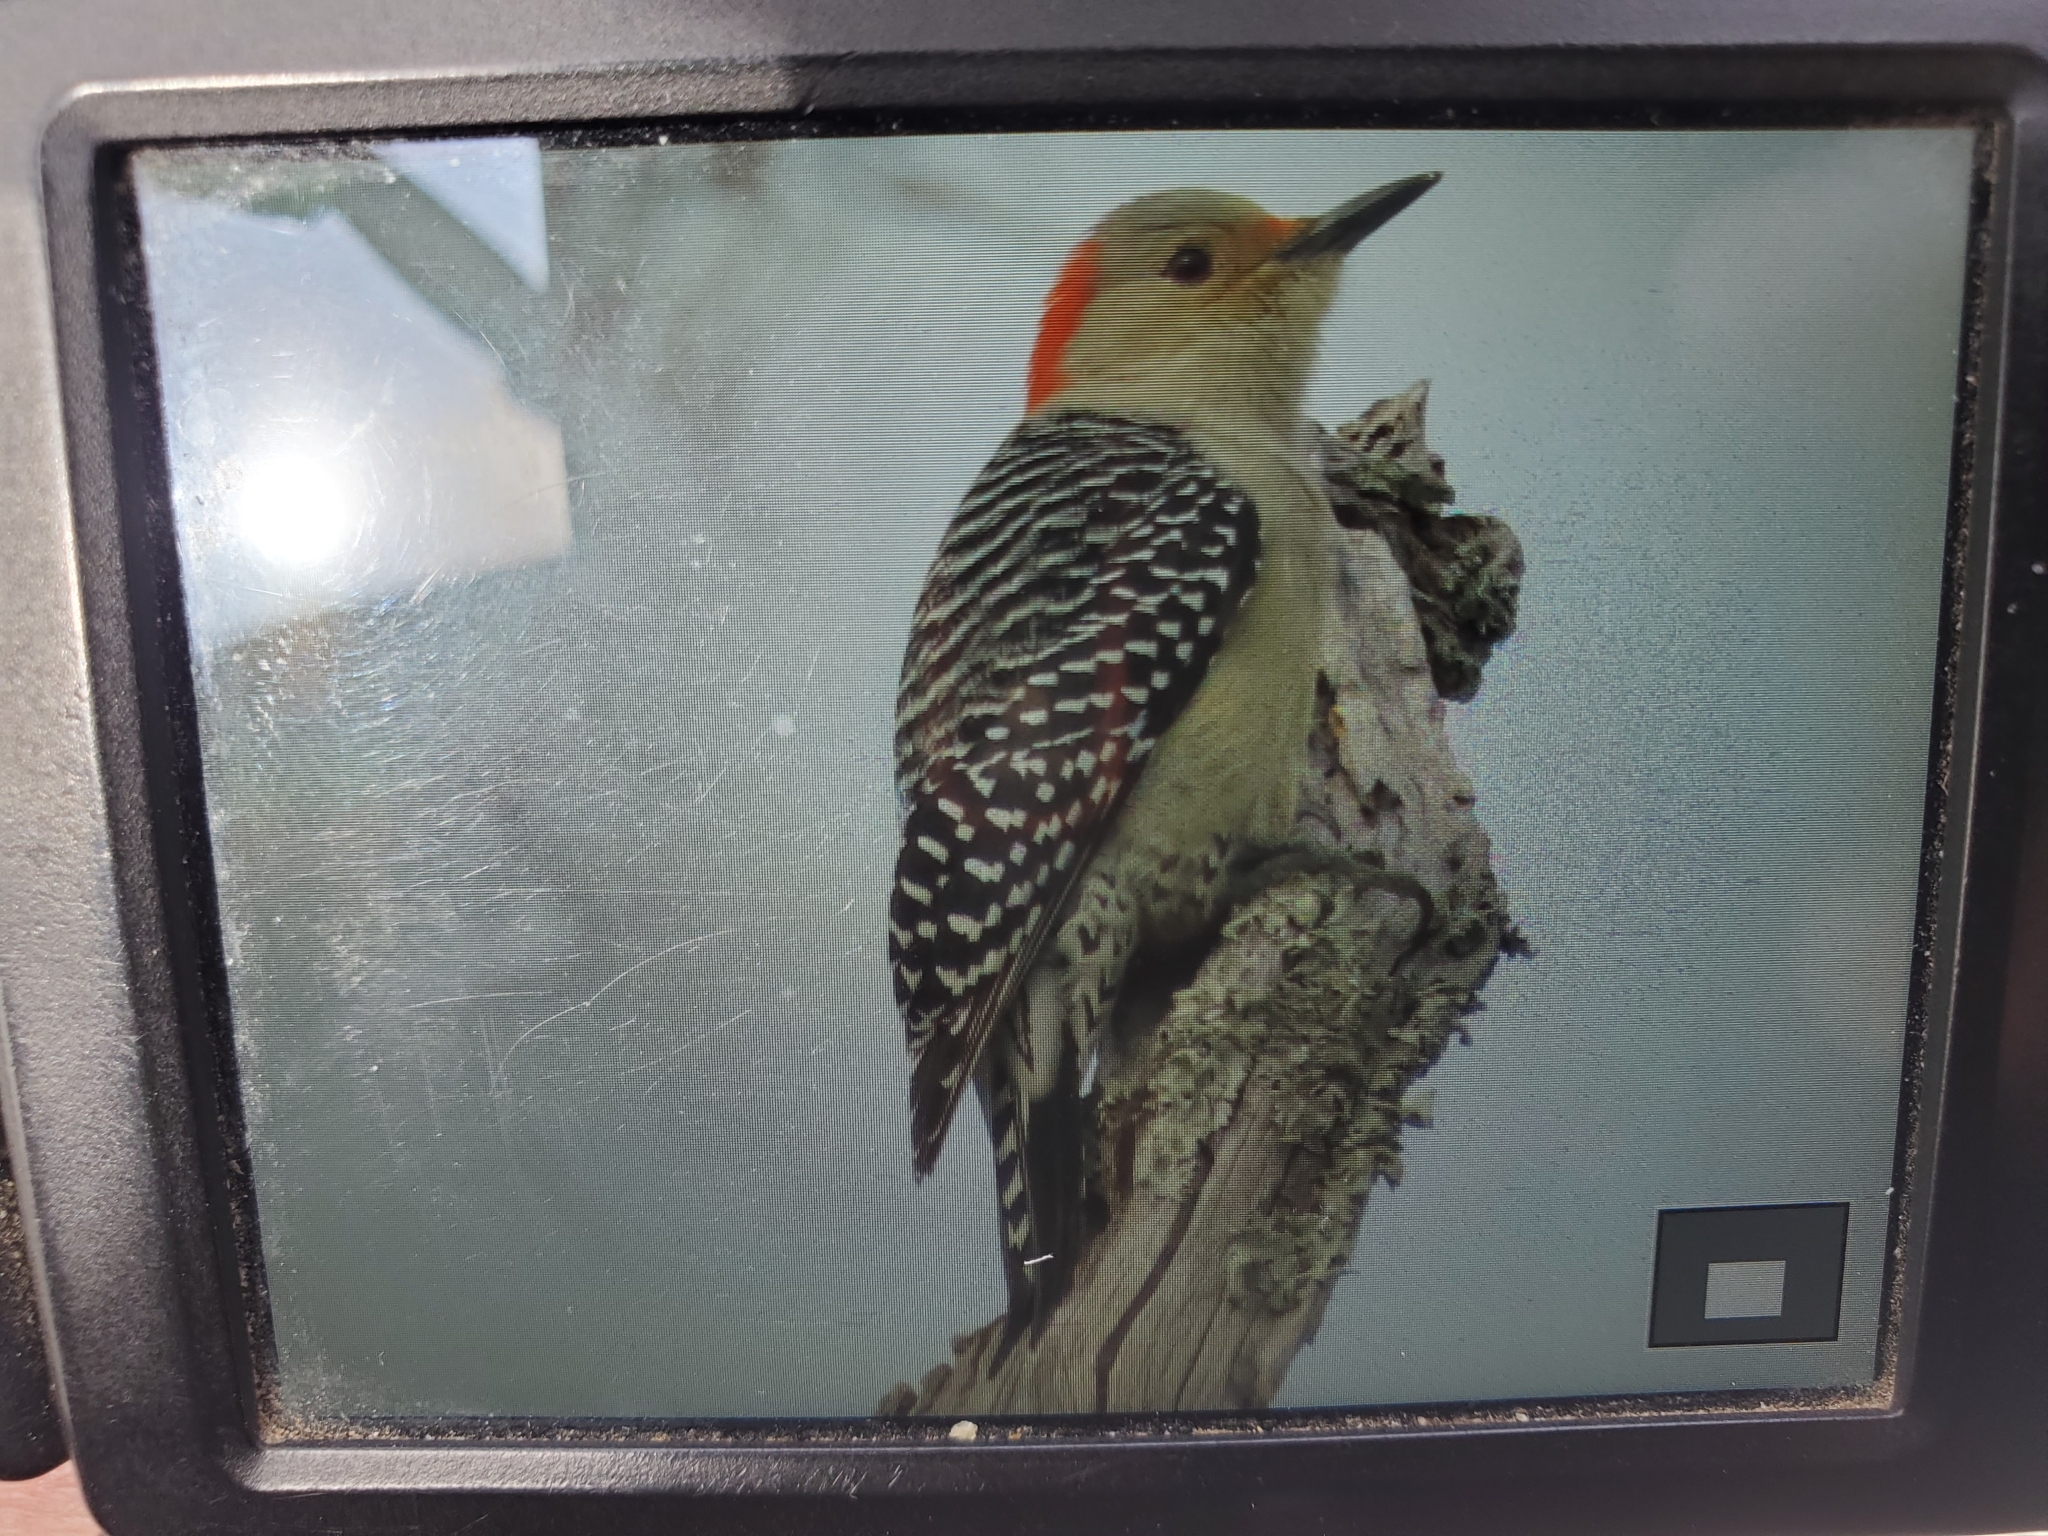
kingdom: Animalia
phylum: Chordata
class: Aves
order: Piciformes
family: Picidae
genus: Melanerpes
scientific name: Melanerpes carolinus
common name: Red-bellied woodpecker
